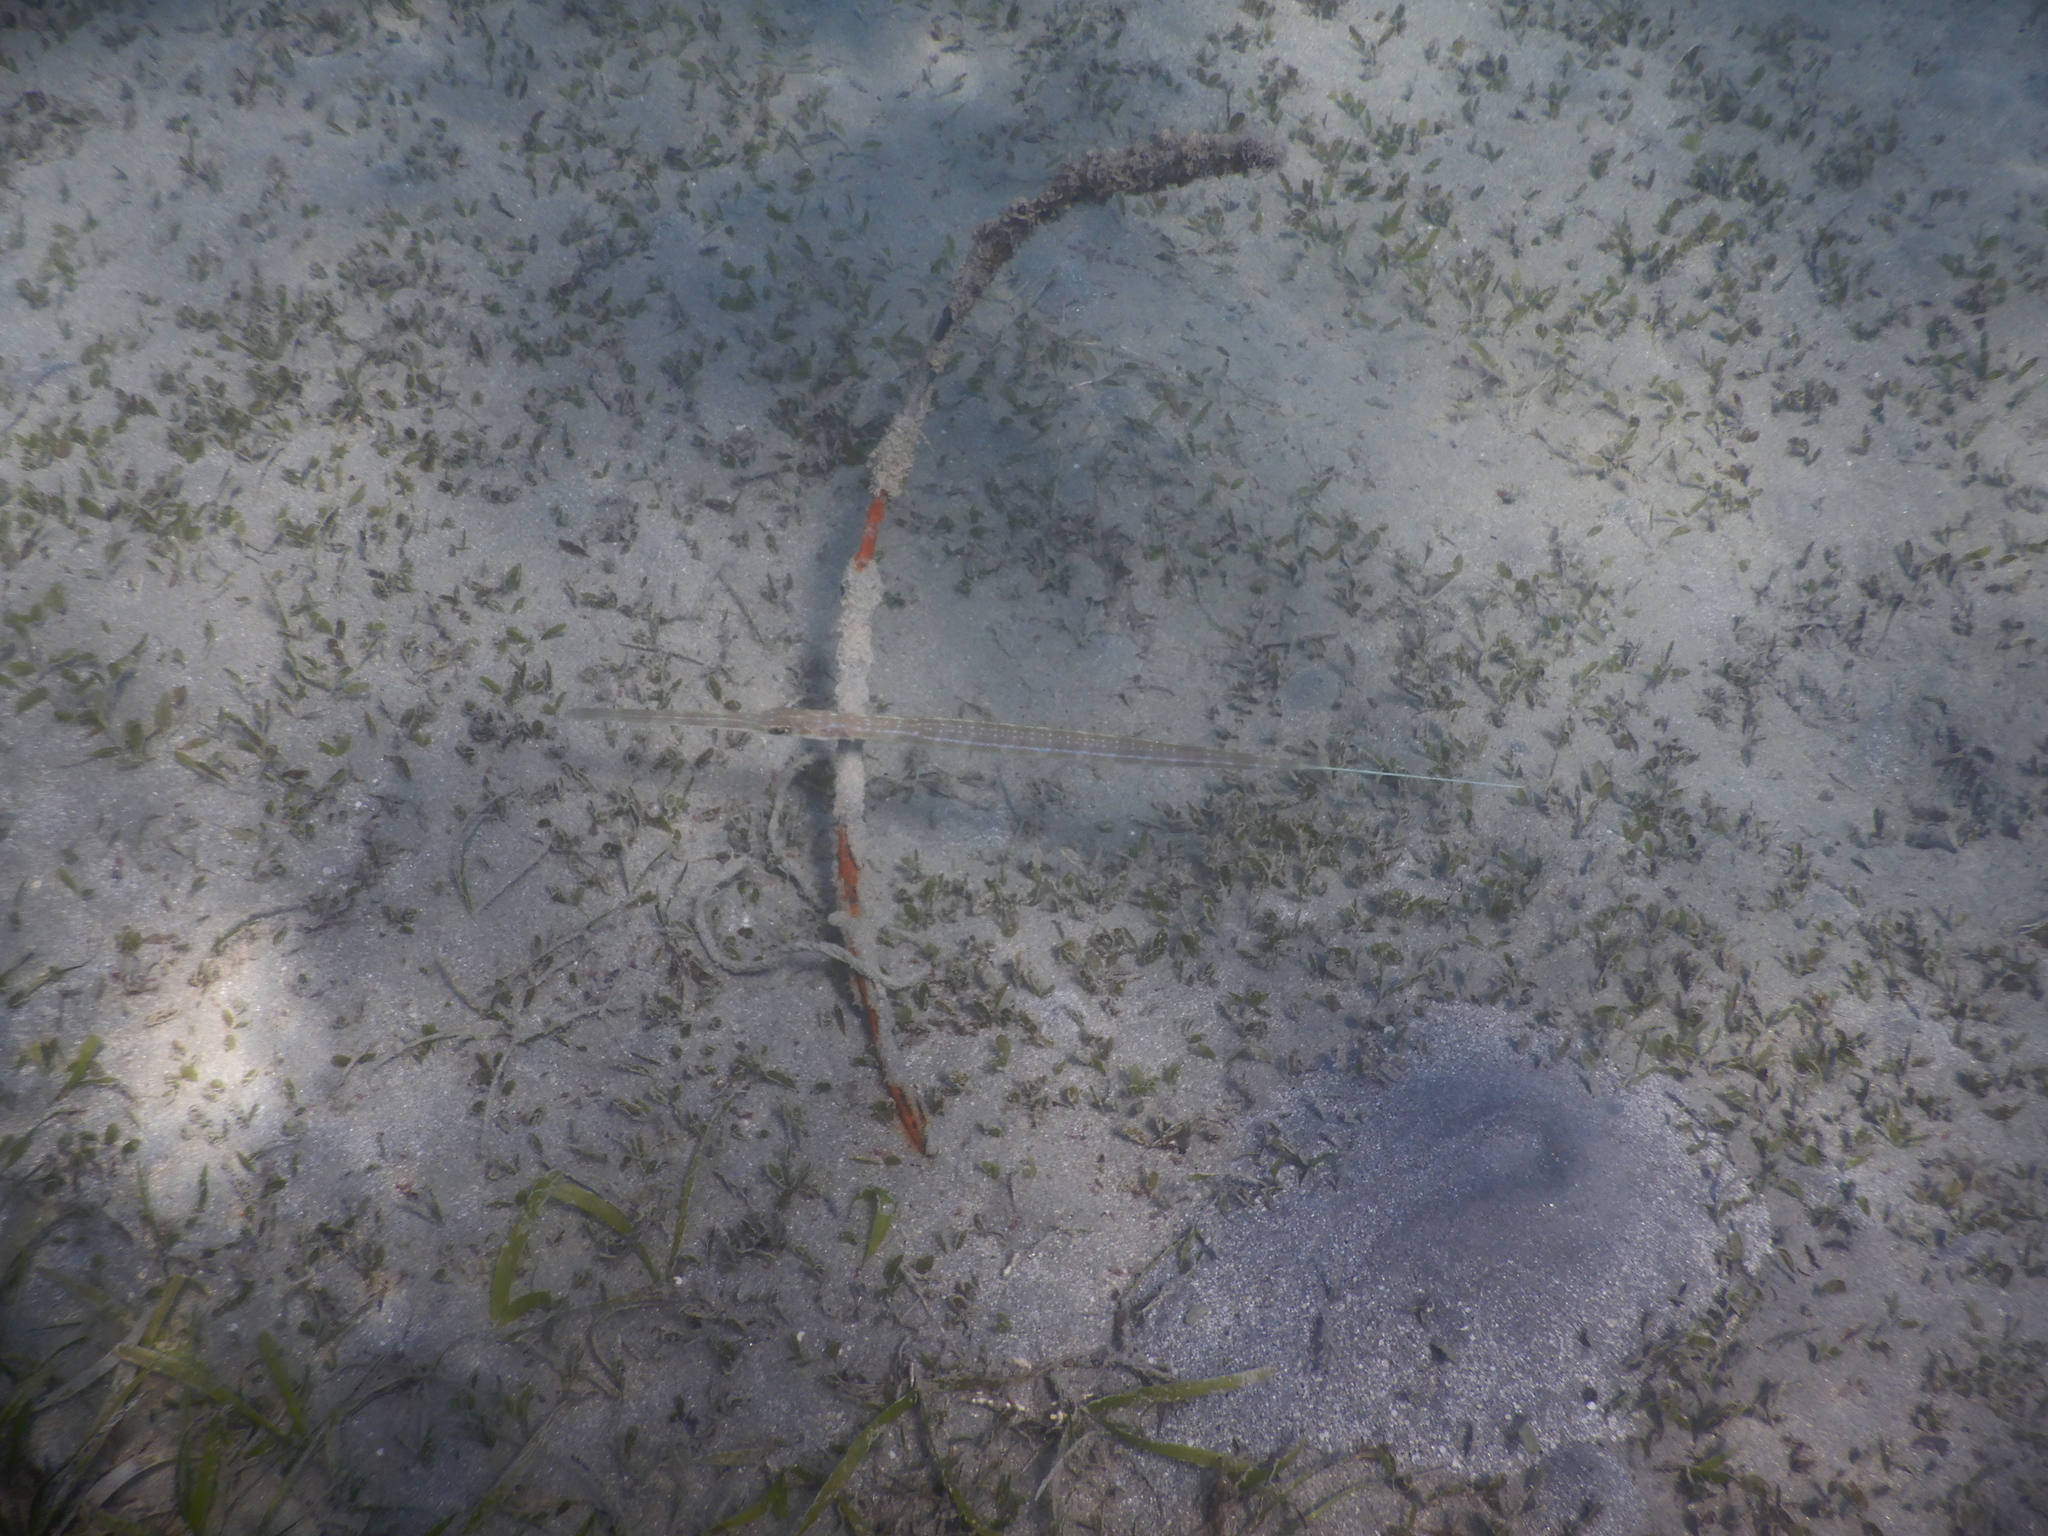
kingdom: Animalia
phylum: Chordata
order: Syngnathiformes
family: Fistulariidae
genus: Fistularia
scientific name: Fistularia commersonii
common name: Bluespotted cornetfish
